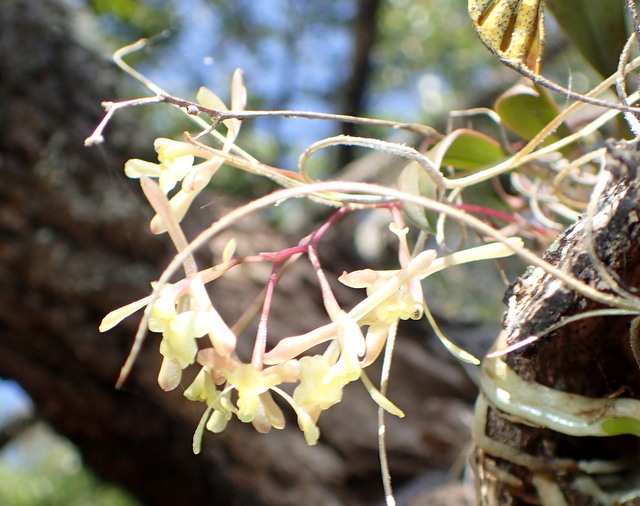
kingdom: Plantae
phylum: Tracheophyta
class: Liliopsida
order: Asparagales
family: Orchidaceae
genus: Epidendrum
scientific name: Epidendrum conopseum
